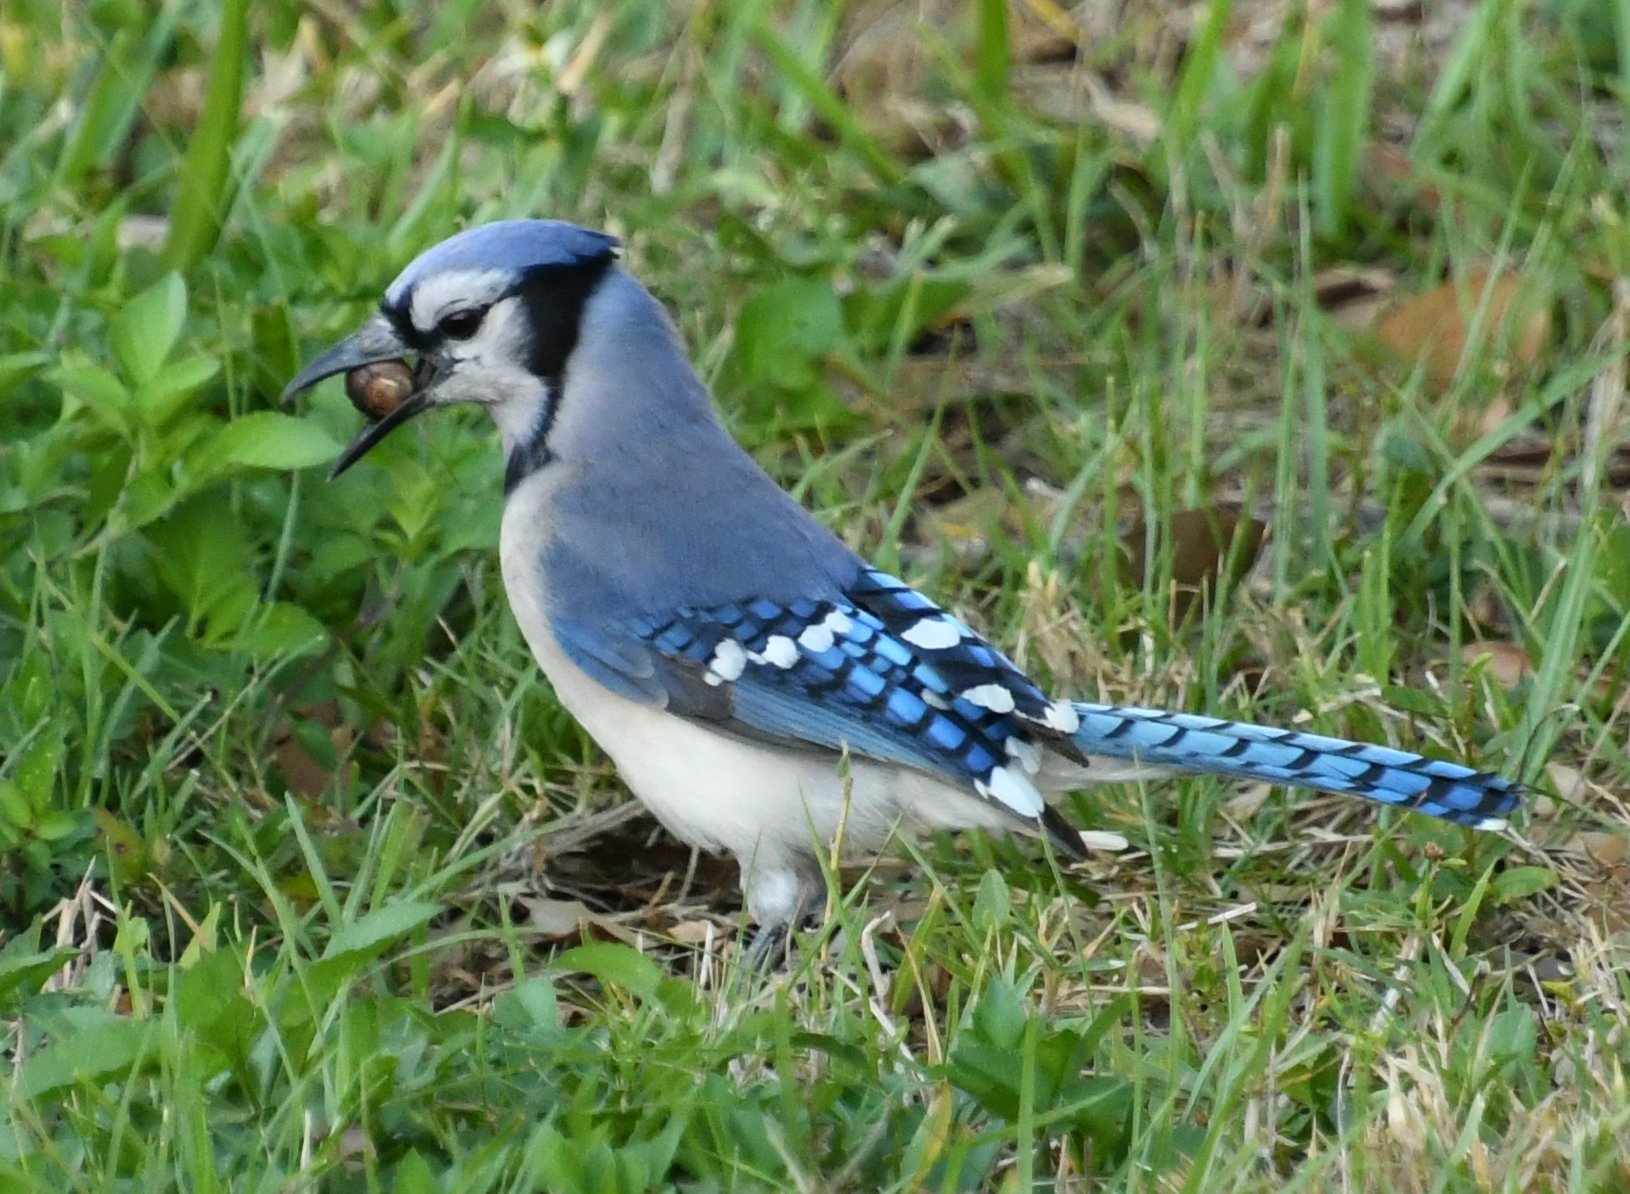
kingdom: Animalia
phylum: Chordata
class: Aves
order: Passeriformes
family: Corvidae
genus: Cyanocitta
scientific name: Cyanocitta cristata
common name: Blue jay
